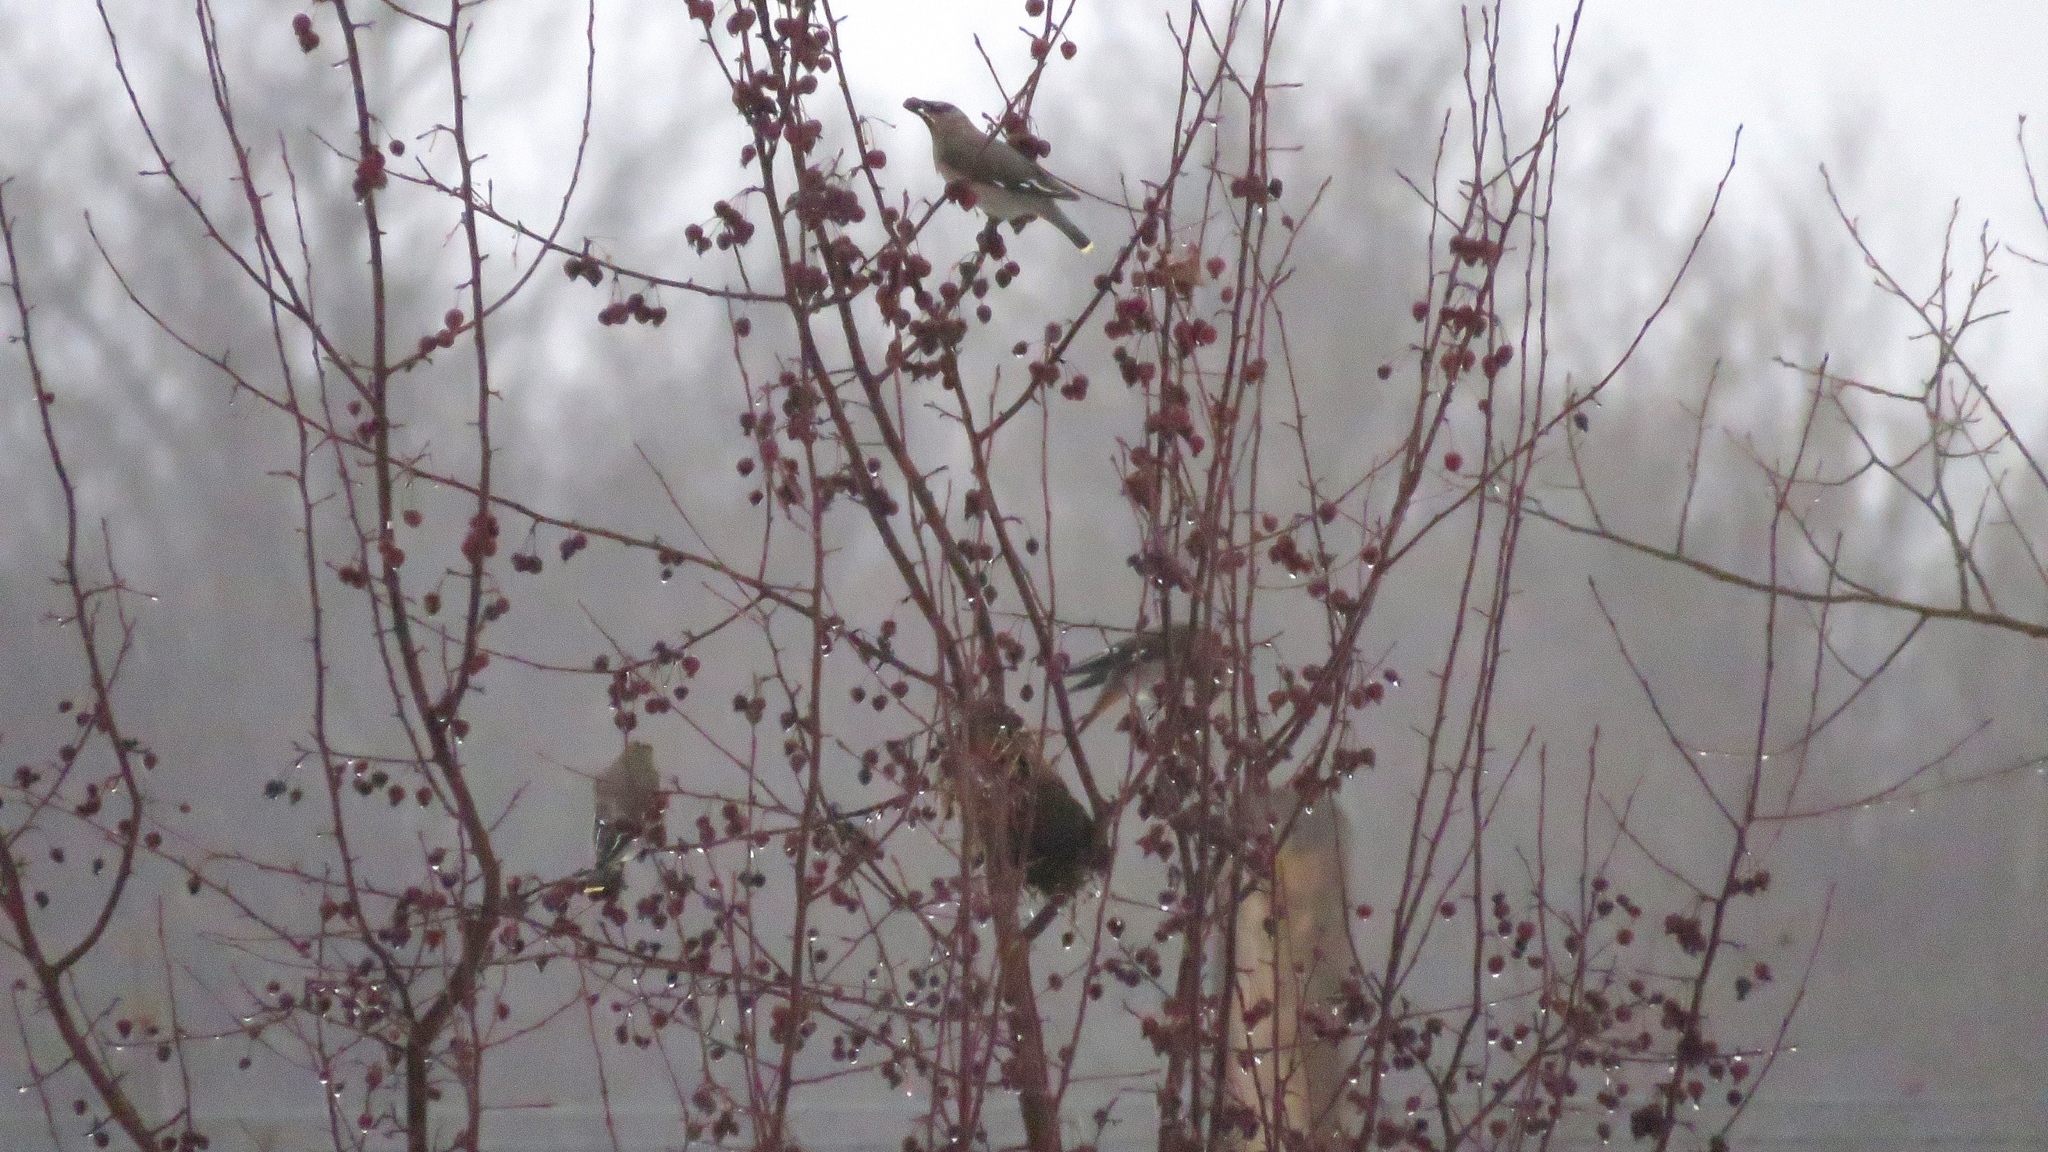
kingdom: Animalia
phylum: Chordata
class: Aves
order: Passeriformes
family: Bombycillidae
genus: Bombycilla
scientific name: Bombycilla garrulus
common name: Bohemian waxwing
